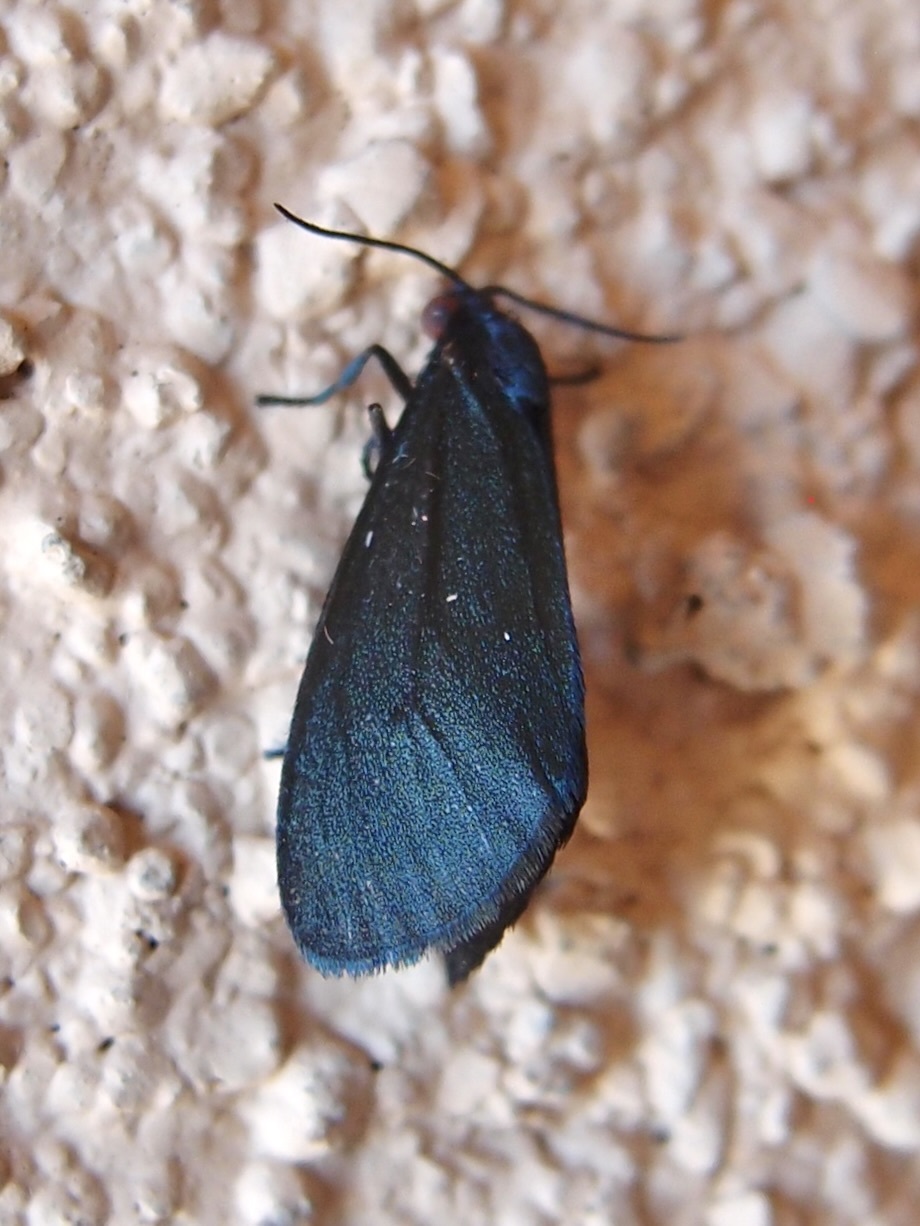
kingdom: Animalia
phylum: Arthropoda
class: Insecta
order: Lepidoptera
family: Erebidae
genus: Stenucha
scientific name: Stenucha dolens
